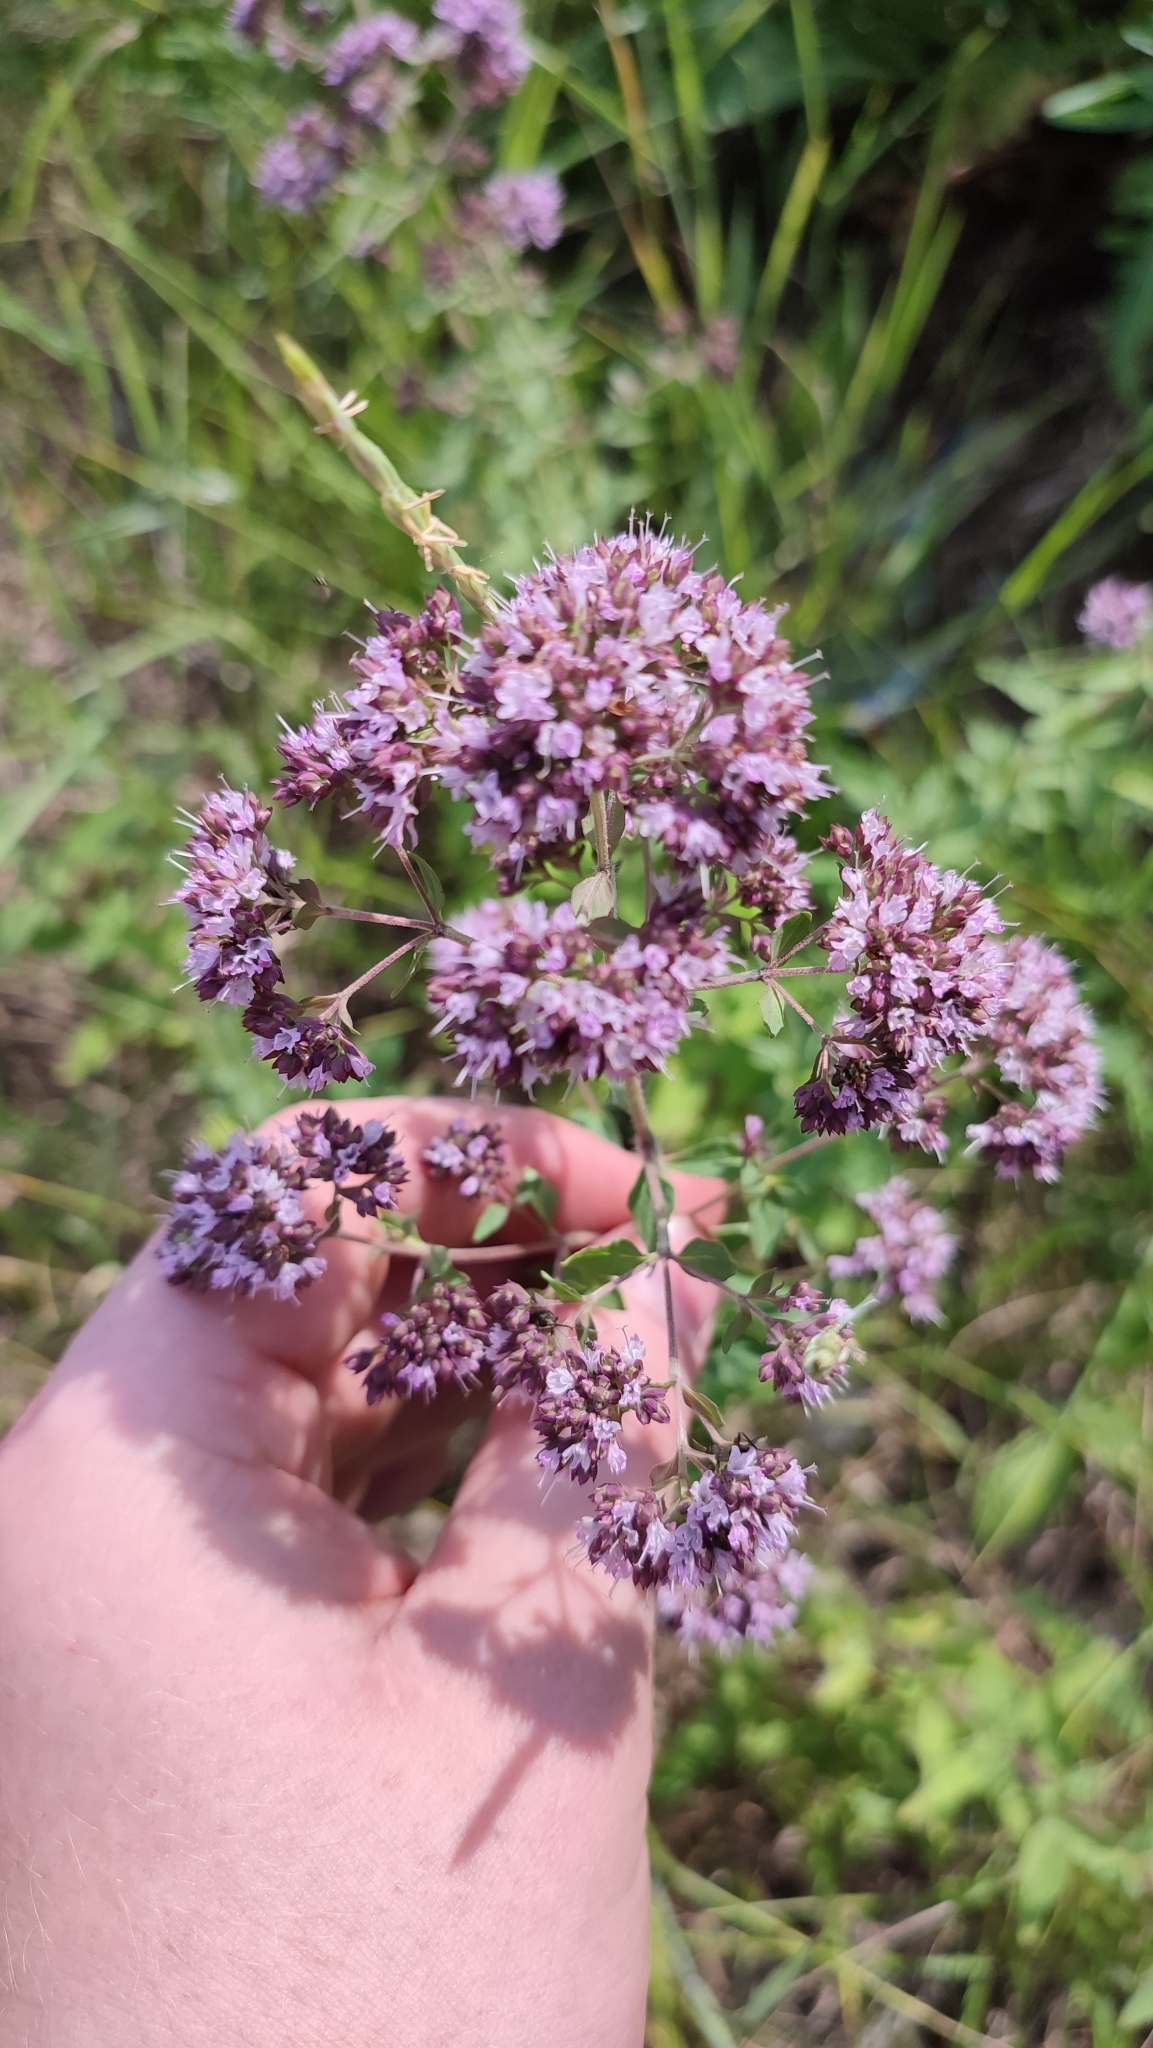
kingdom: Plantae
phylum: Tracheophyta
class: Magnoliopsida
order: Lamiales
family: Lamiaceae
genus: Origanum
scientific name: Origanum vulgare
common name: Wild marjoram
